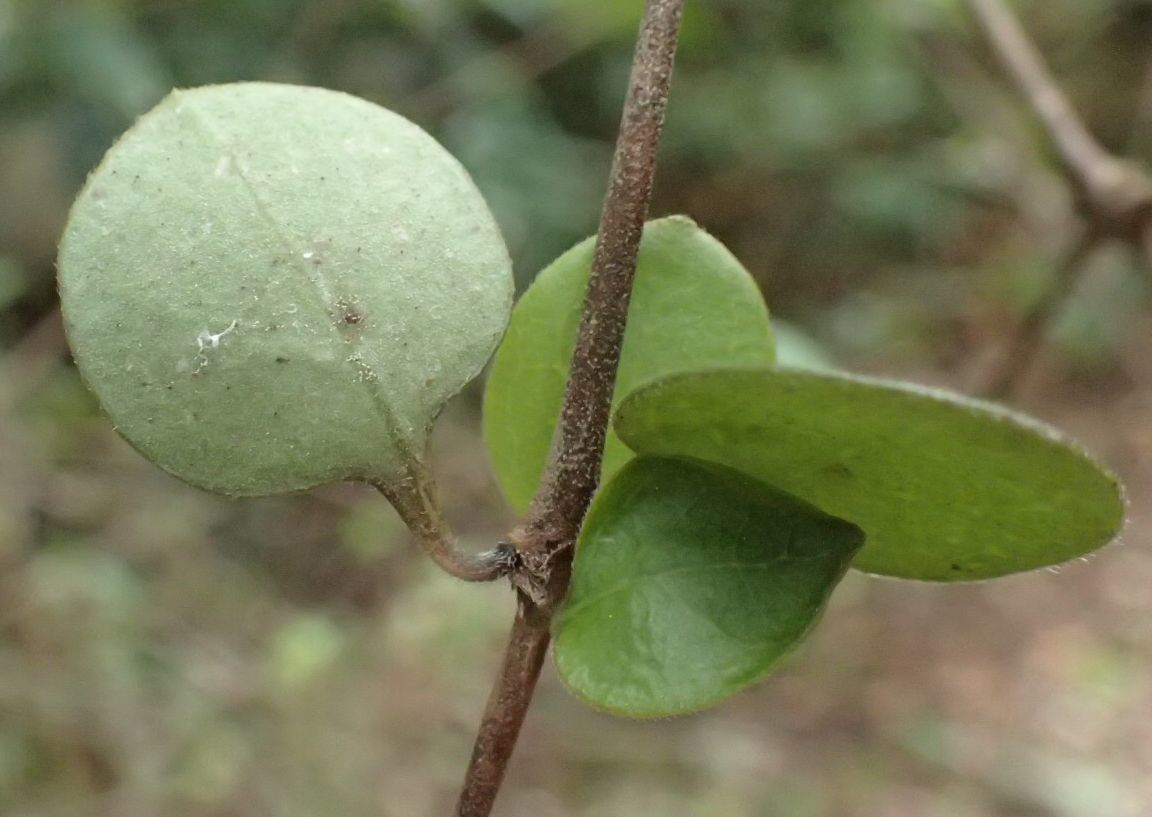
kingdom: Plantae
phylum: Tracheophyta
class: Magnoliopsida
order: Gentianales
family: Rubiaceae
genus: Coprosma
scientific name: Coprosma crassifolia
